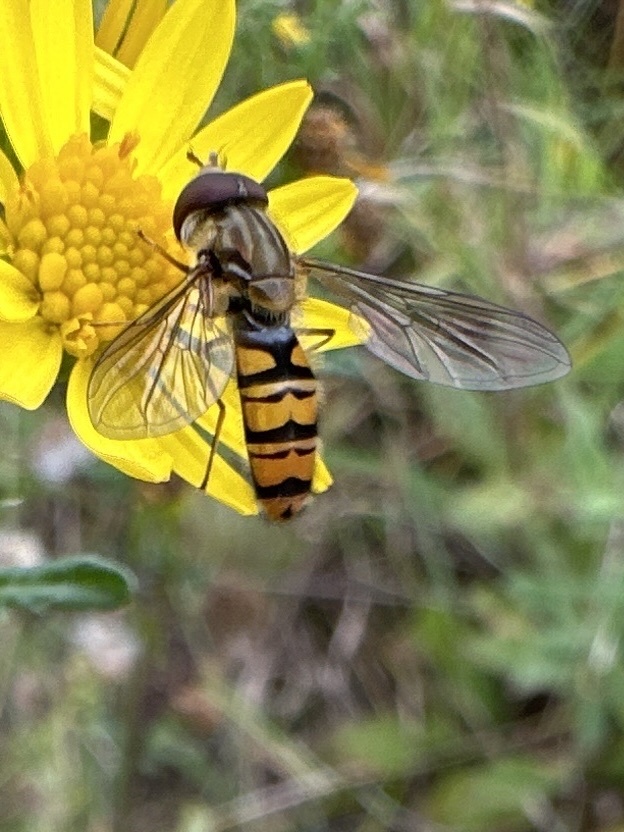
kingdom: Animalia
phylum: Arthropoda
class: Insecta
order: Diptera
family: Syrphidae
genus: Episyrphus
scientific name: Episyrphus balteatus
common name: Marmalade hoverfly
